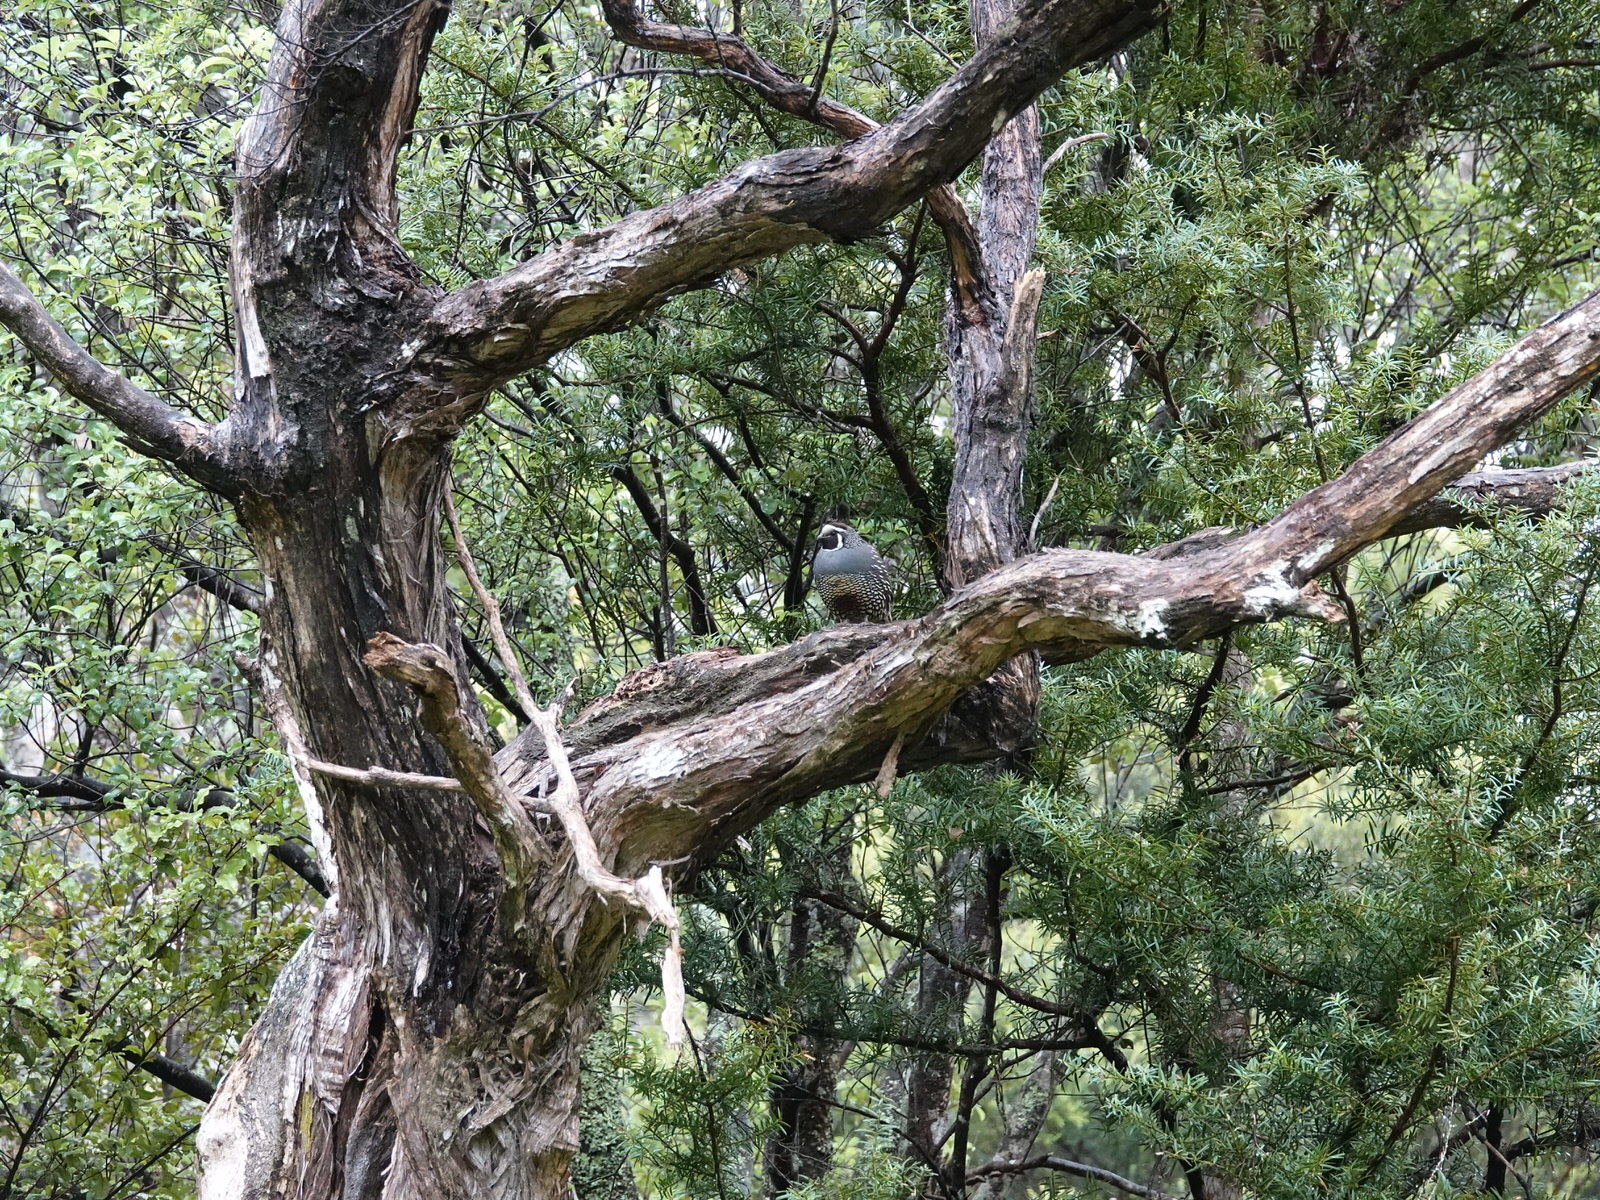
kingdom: Animalia
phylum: Chordata
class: Aves
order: Galliformes
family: Odontophoridae
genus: Callipepla
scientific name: Callipepla californica
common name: California quail
